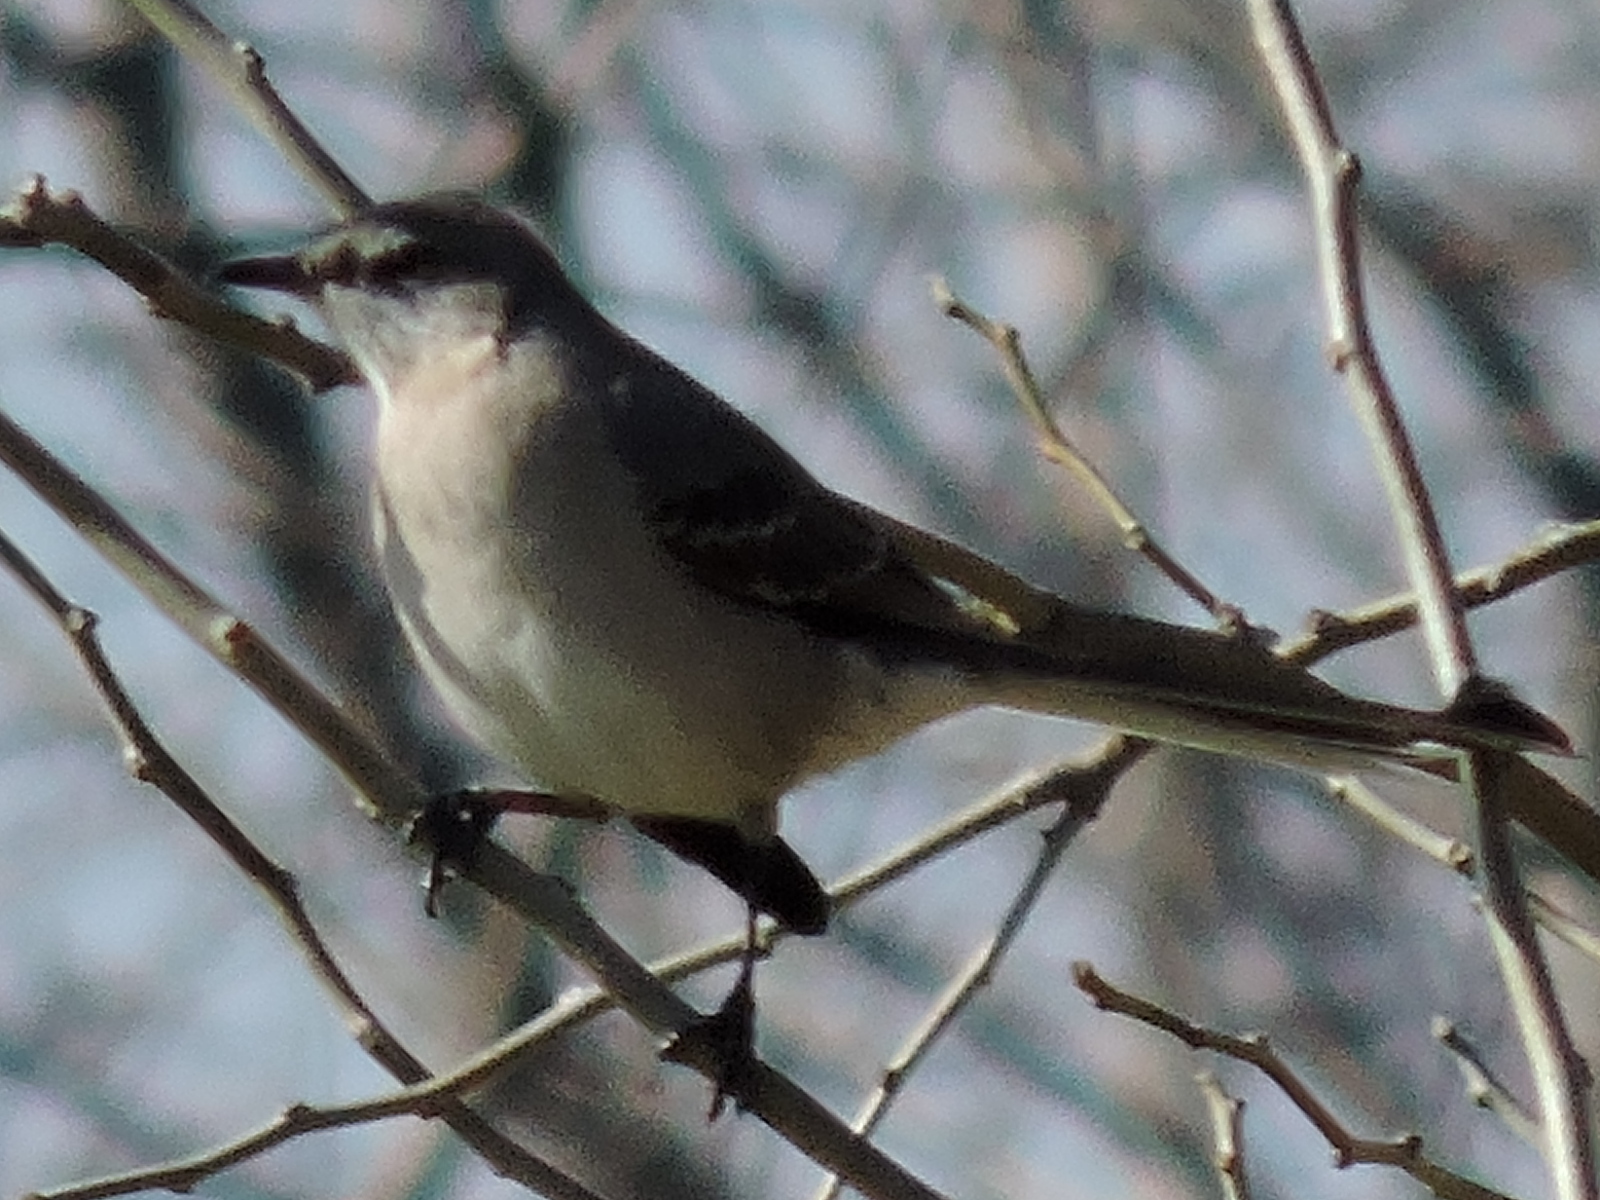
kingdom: Animalia
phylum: Chordata
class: Aves
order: Passeriformes
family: Mimidae
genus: Mimus
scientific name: Mimus polyglottos
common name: Northern mockingbird
